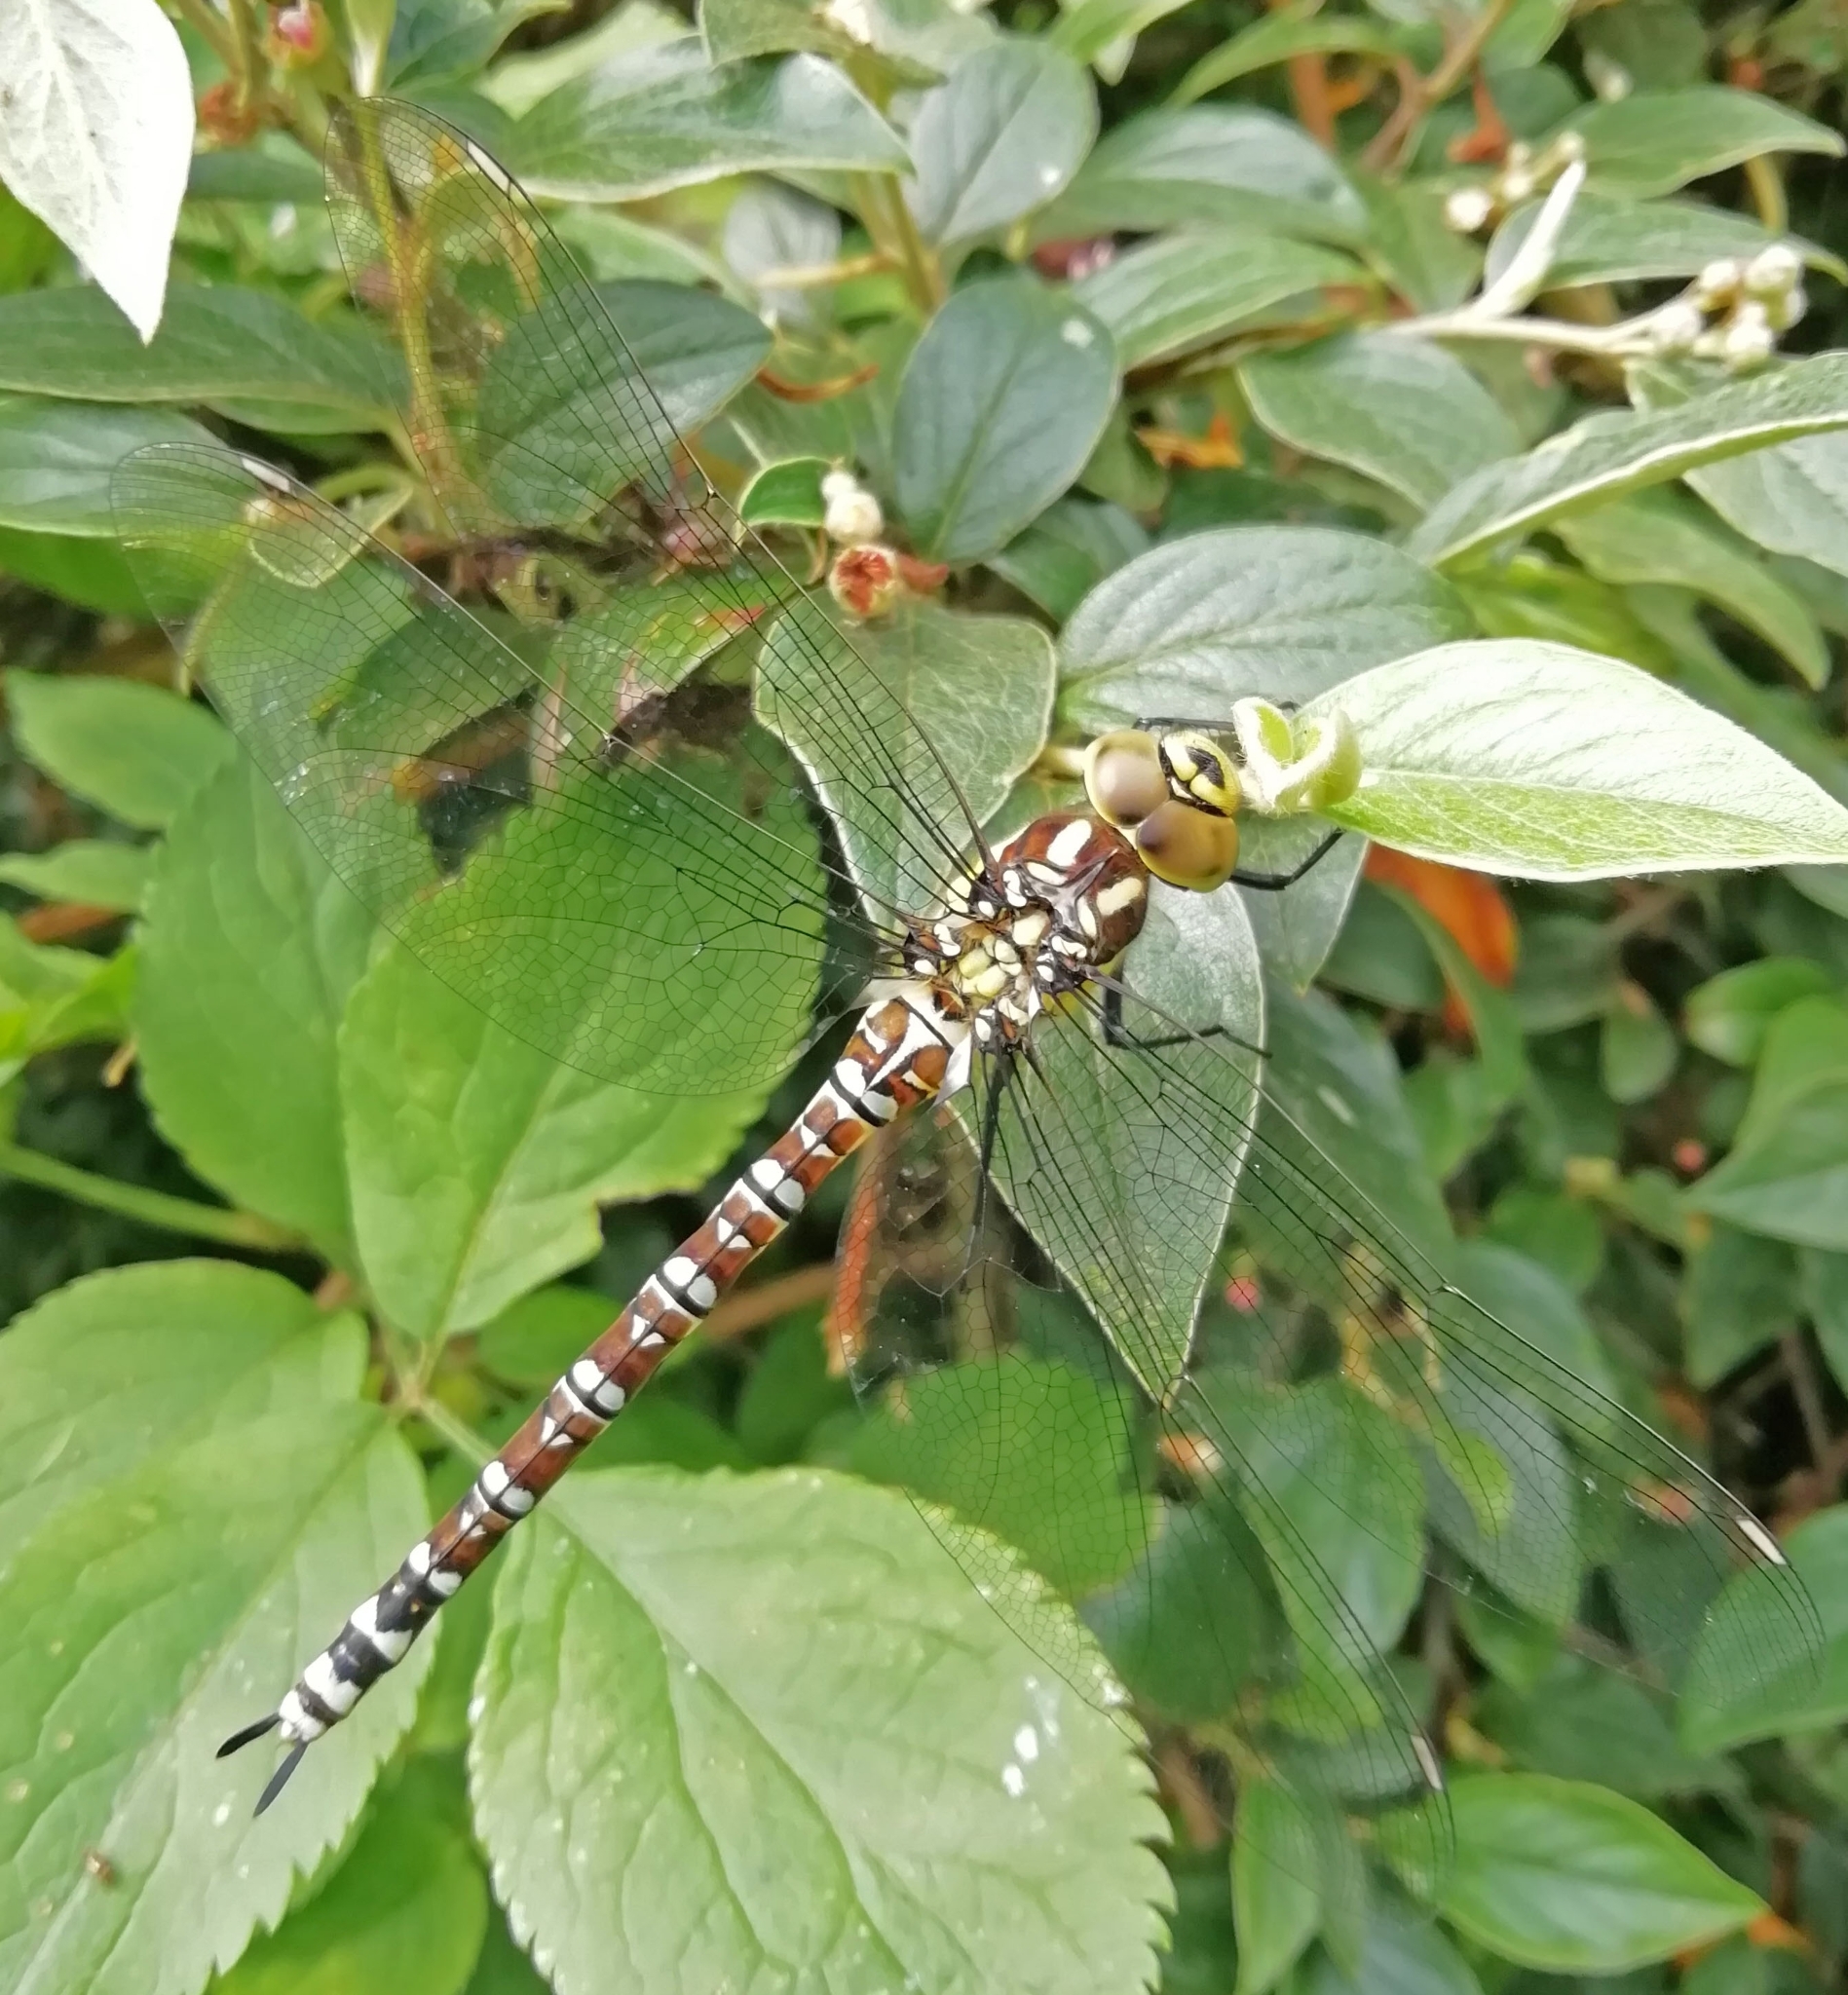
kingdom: Animalia
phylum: Arthropoda
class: Insecta
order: Odonata
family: Aeshnidae
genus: Aeshna
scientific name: Aeshna cyanea
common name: Southern hawker
